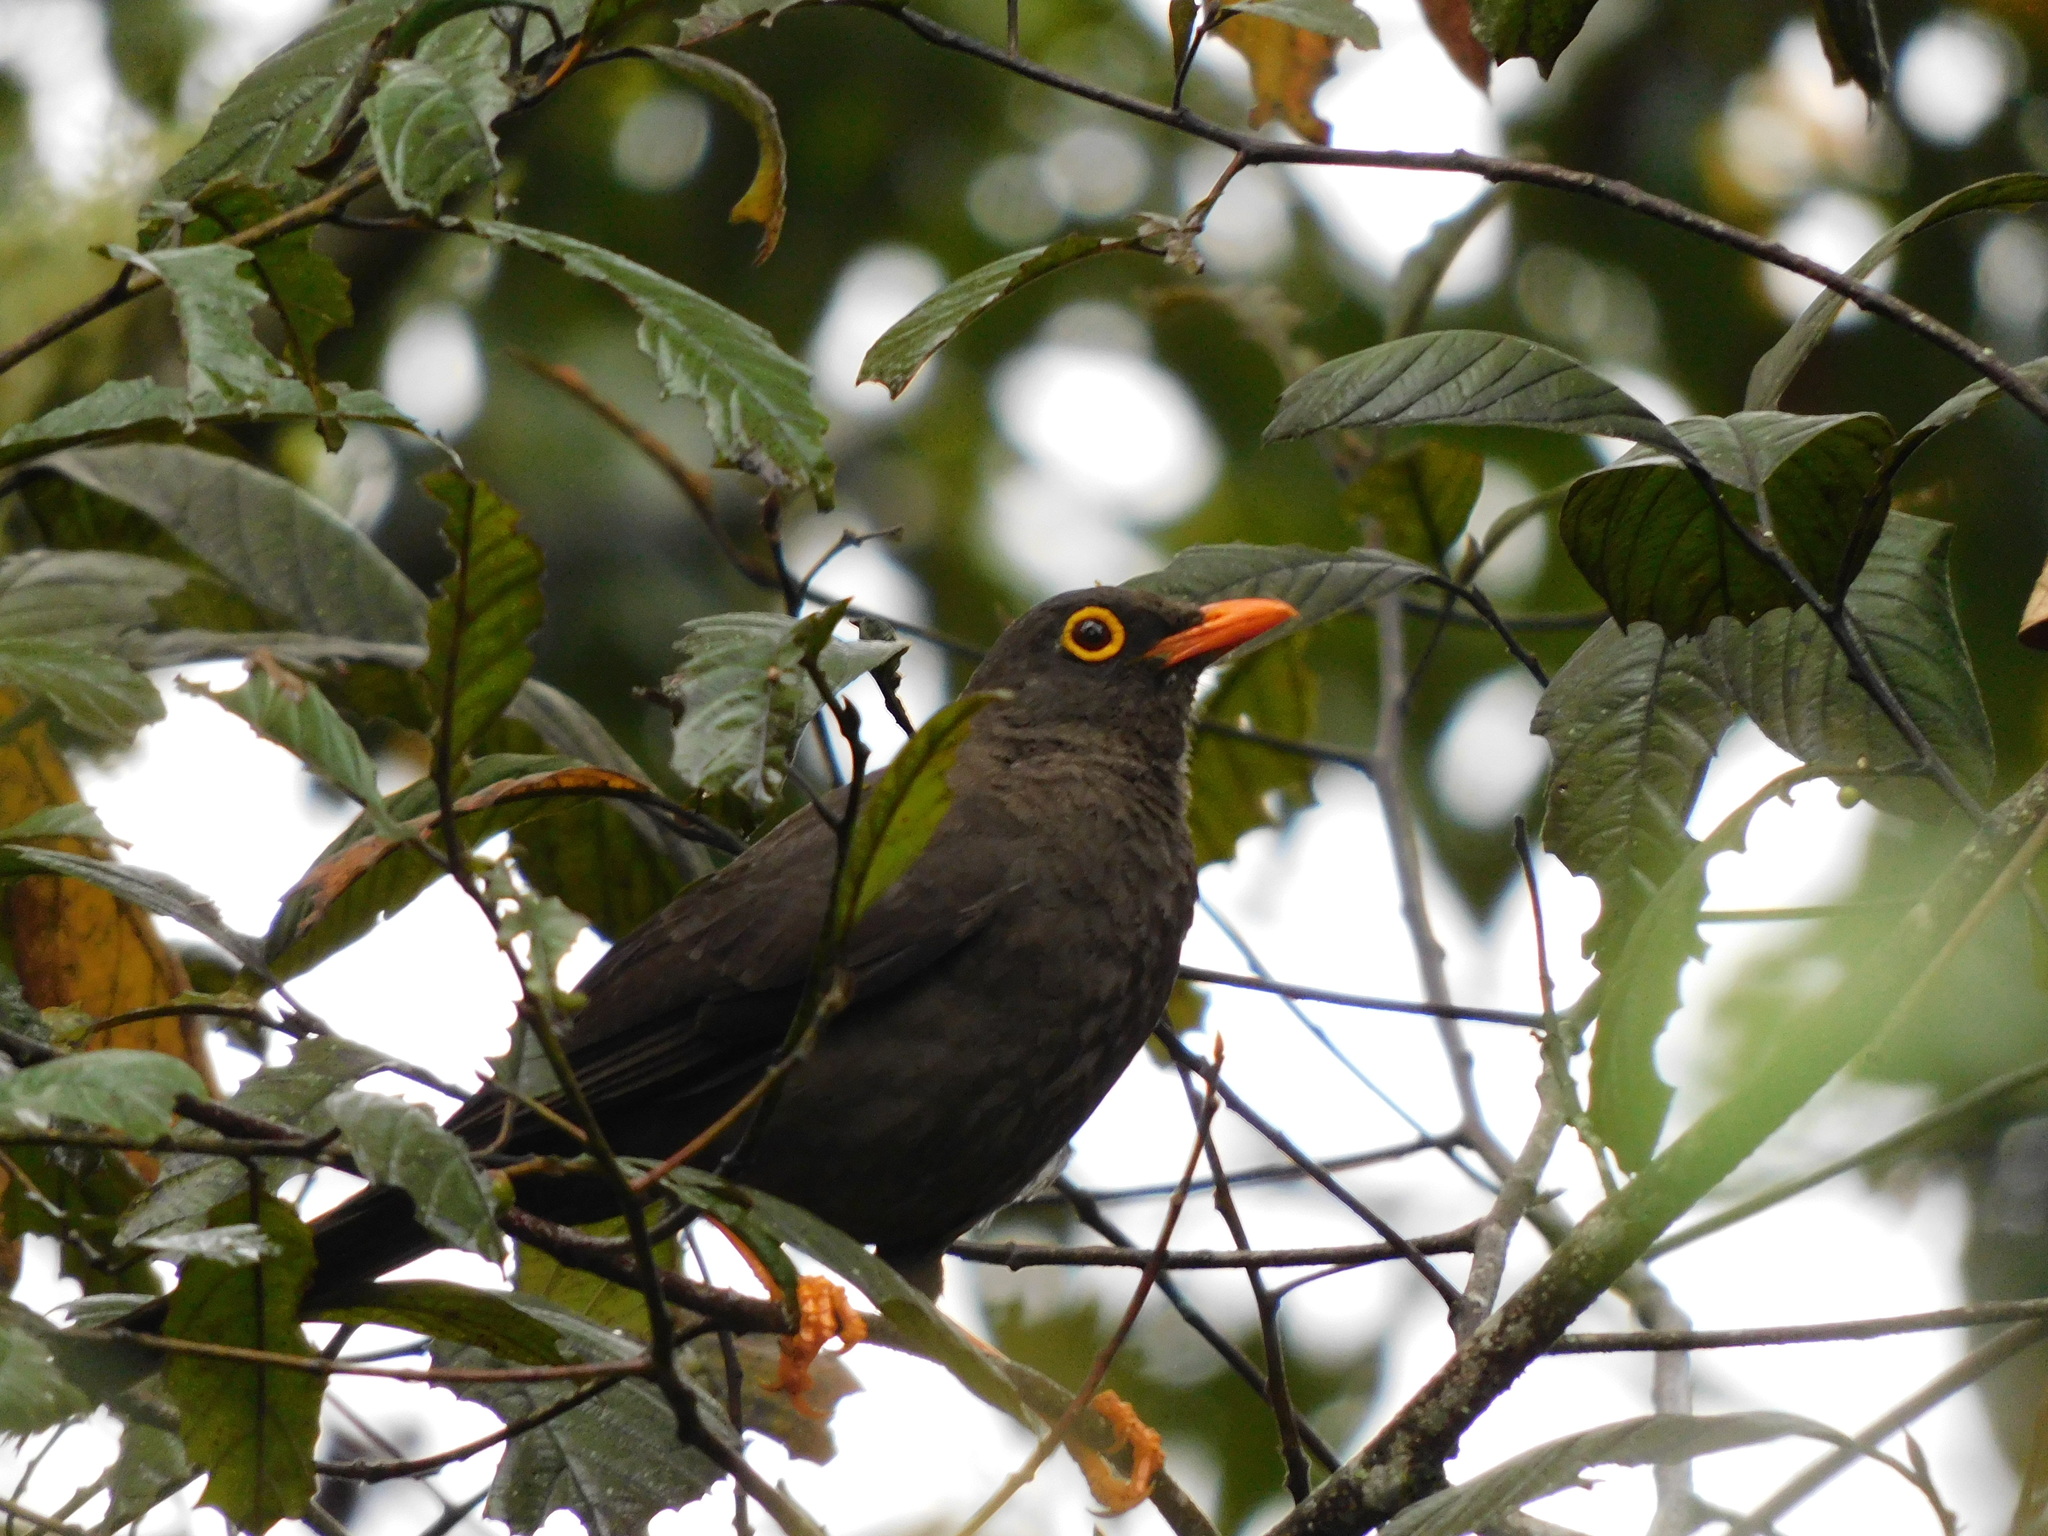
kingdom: Animalia
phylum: Chordata
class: Aves
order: Passeriformes
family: Turdidae
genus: Turdus
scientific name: Turdus fuscater
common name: Great thrush
